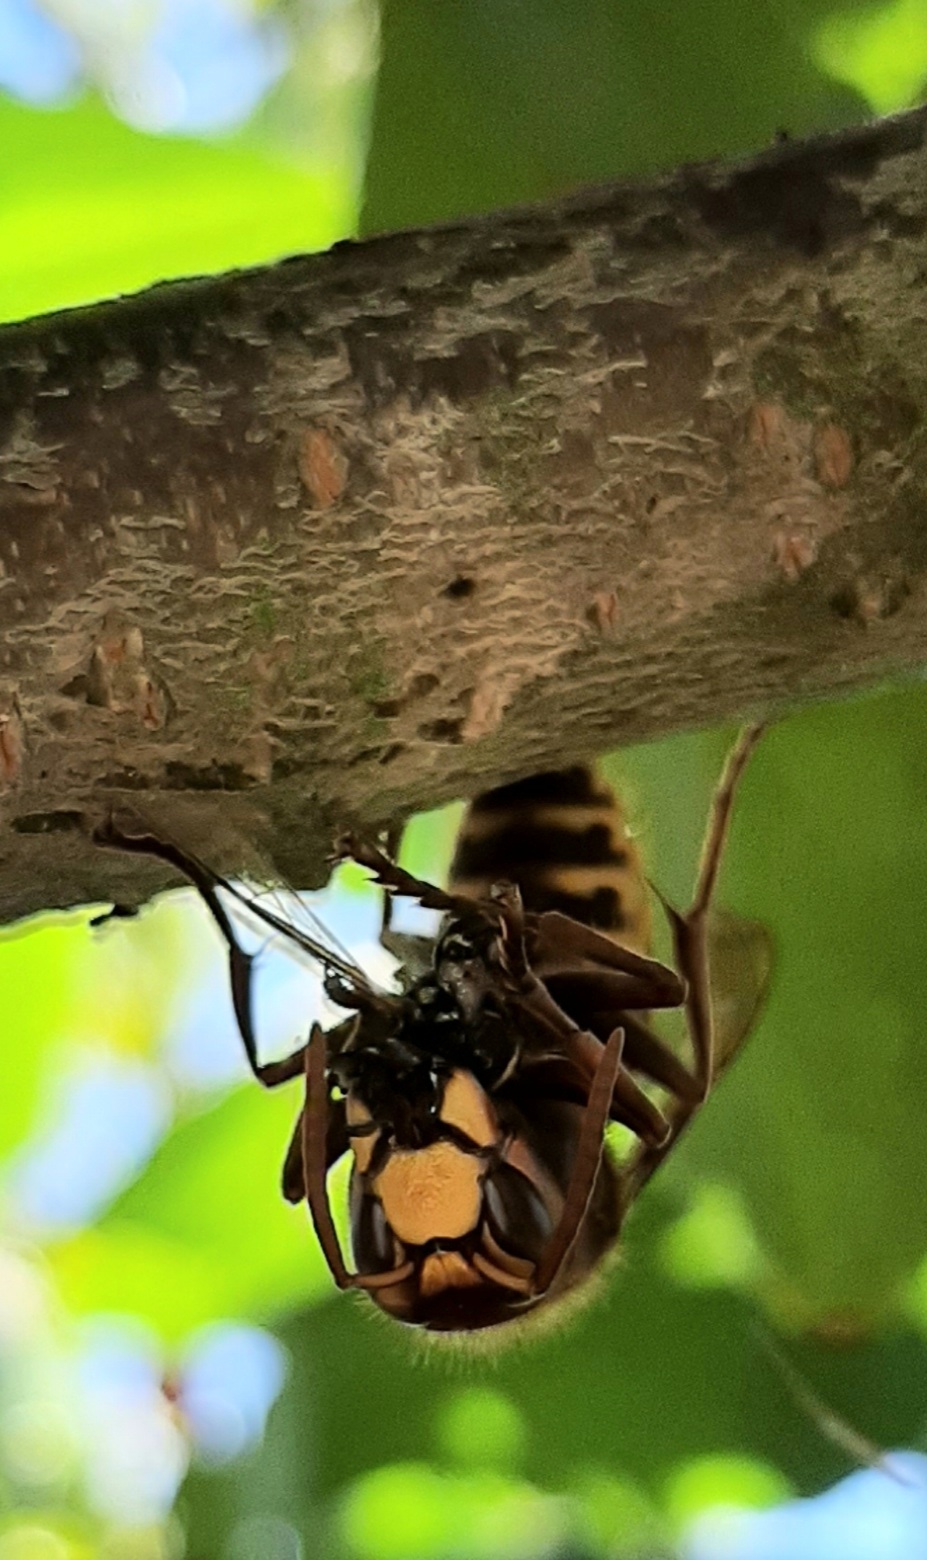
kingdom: Animalia
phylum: Arthropoda
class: Insecta
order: Hymenoptera
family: Vespidae
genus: Vespa
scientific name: Vespa crabro
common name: Hornet
